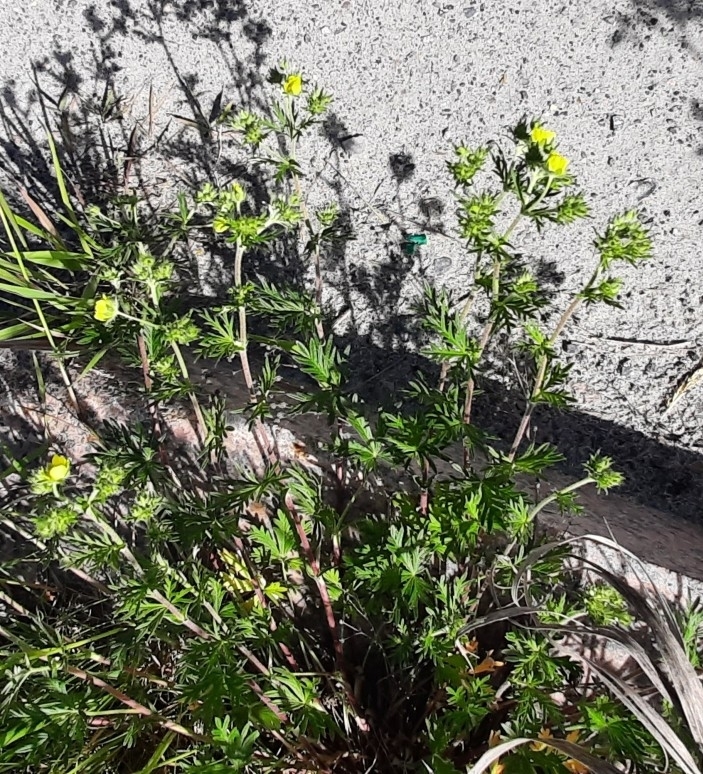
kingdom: Plantae
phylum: Tracheophyta
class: Magnoliopsida
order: Rosales
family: Rosaceae
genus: Potentilla
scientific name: Potentilla argentea
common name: Hoary cinquefoil
